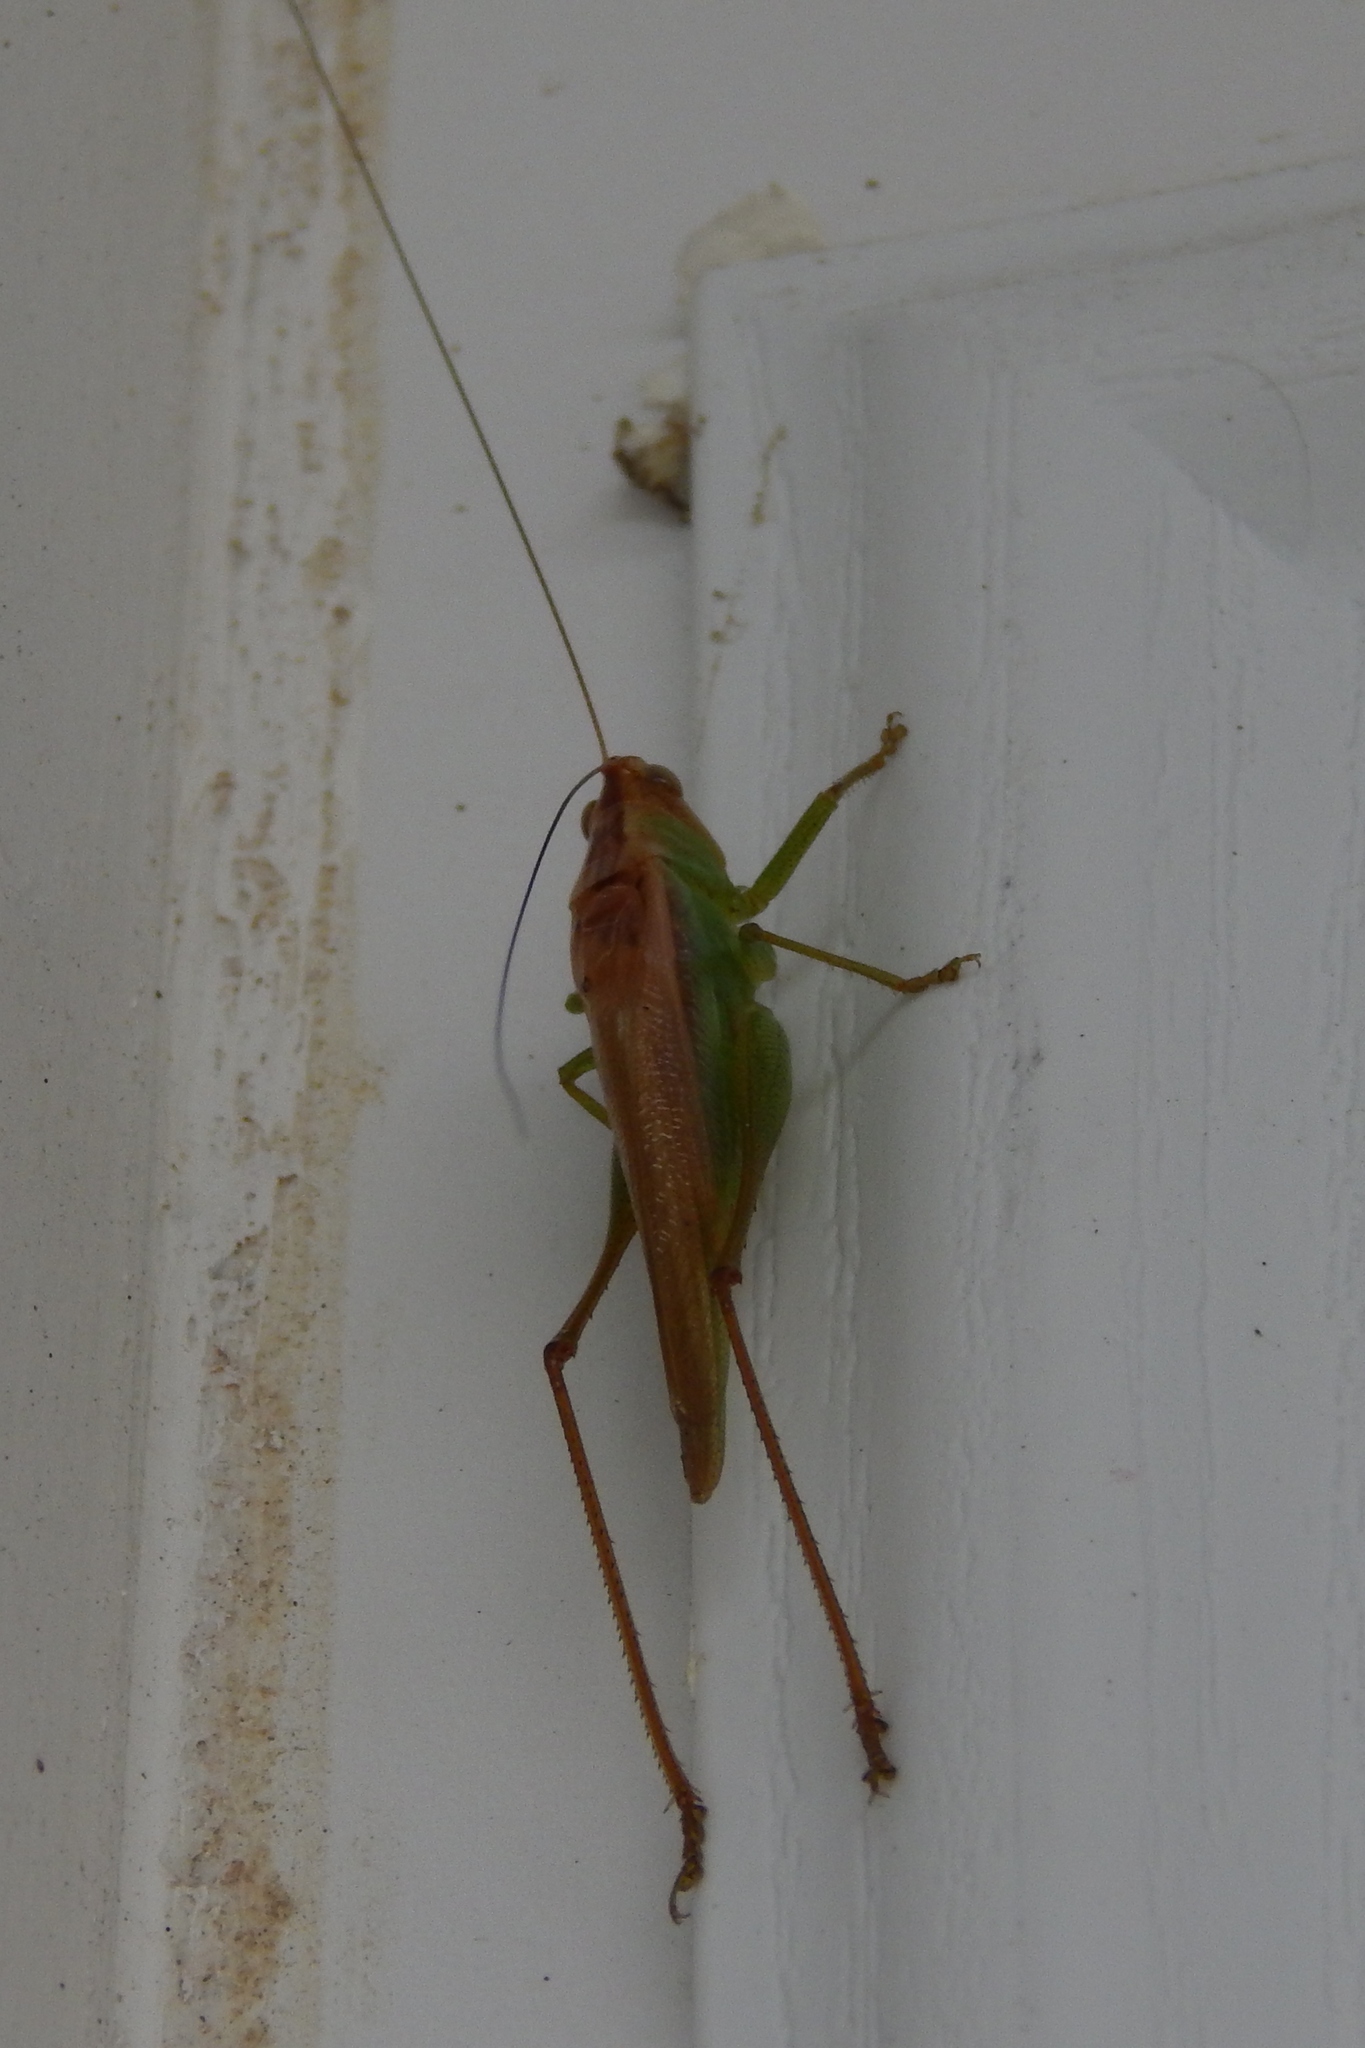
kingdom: Animalia
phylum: Arthropoda
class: Insecta
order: Orthoptera
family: Tettigoniidae
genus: Orchelimum
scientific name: Orchelimum
